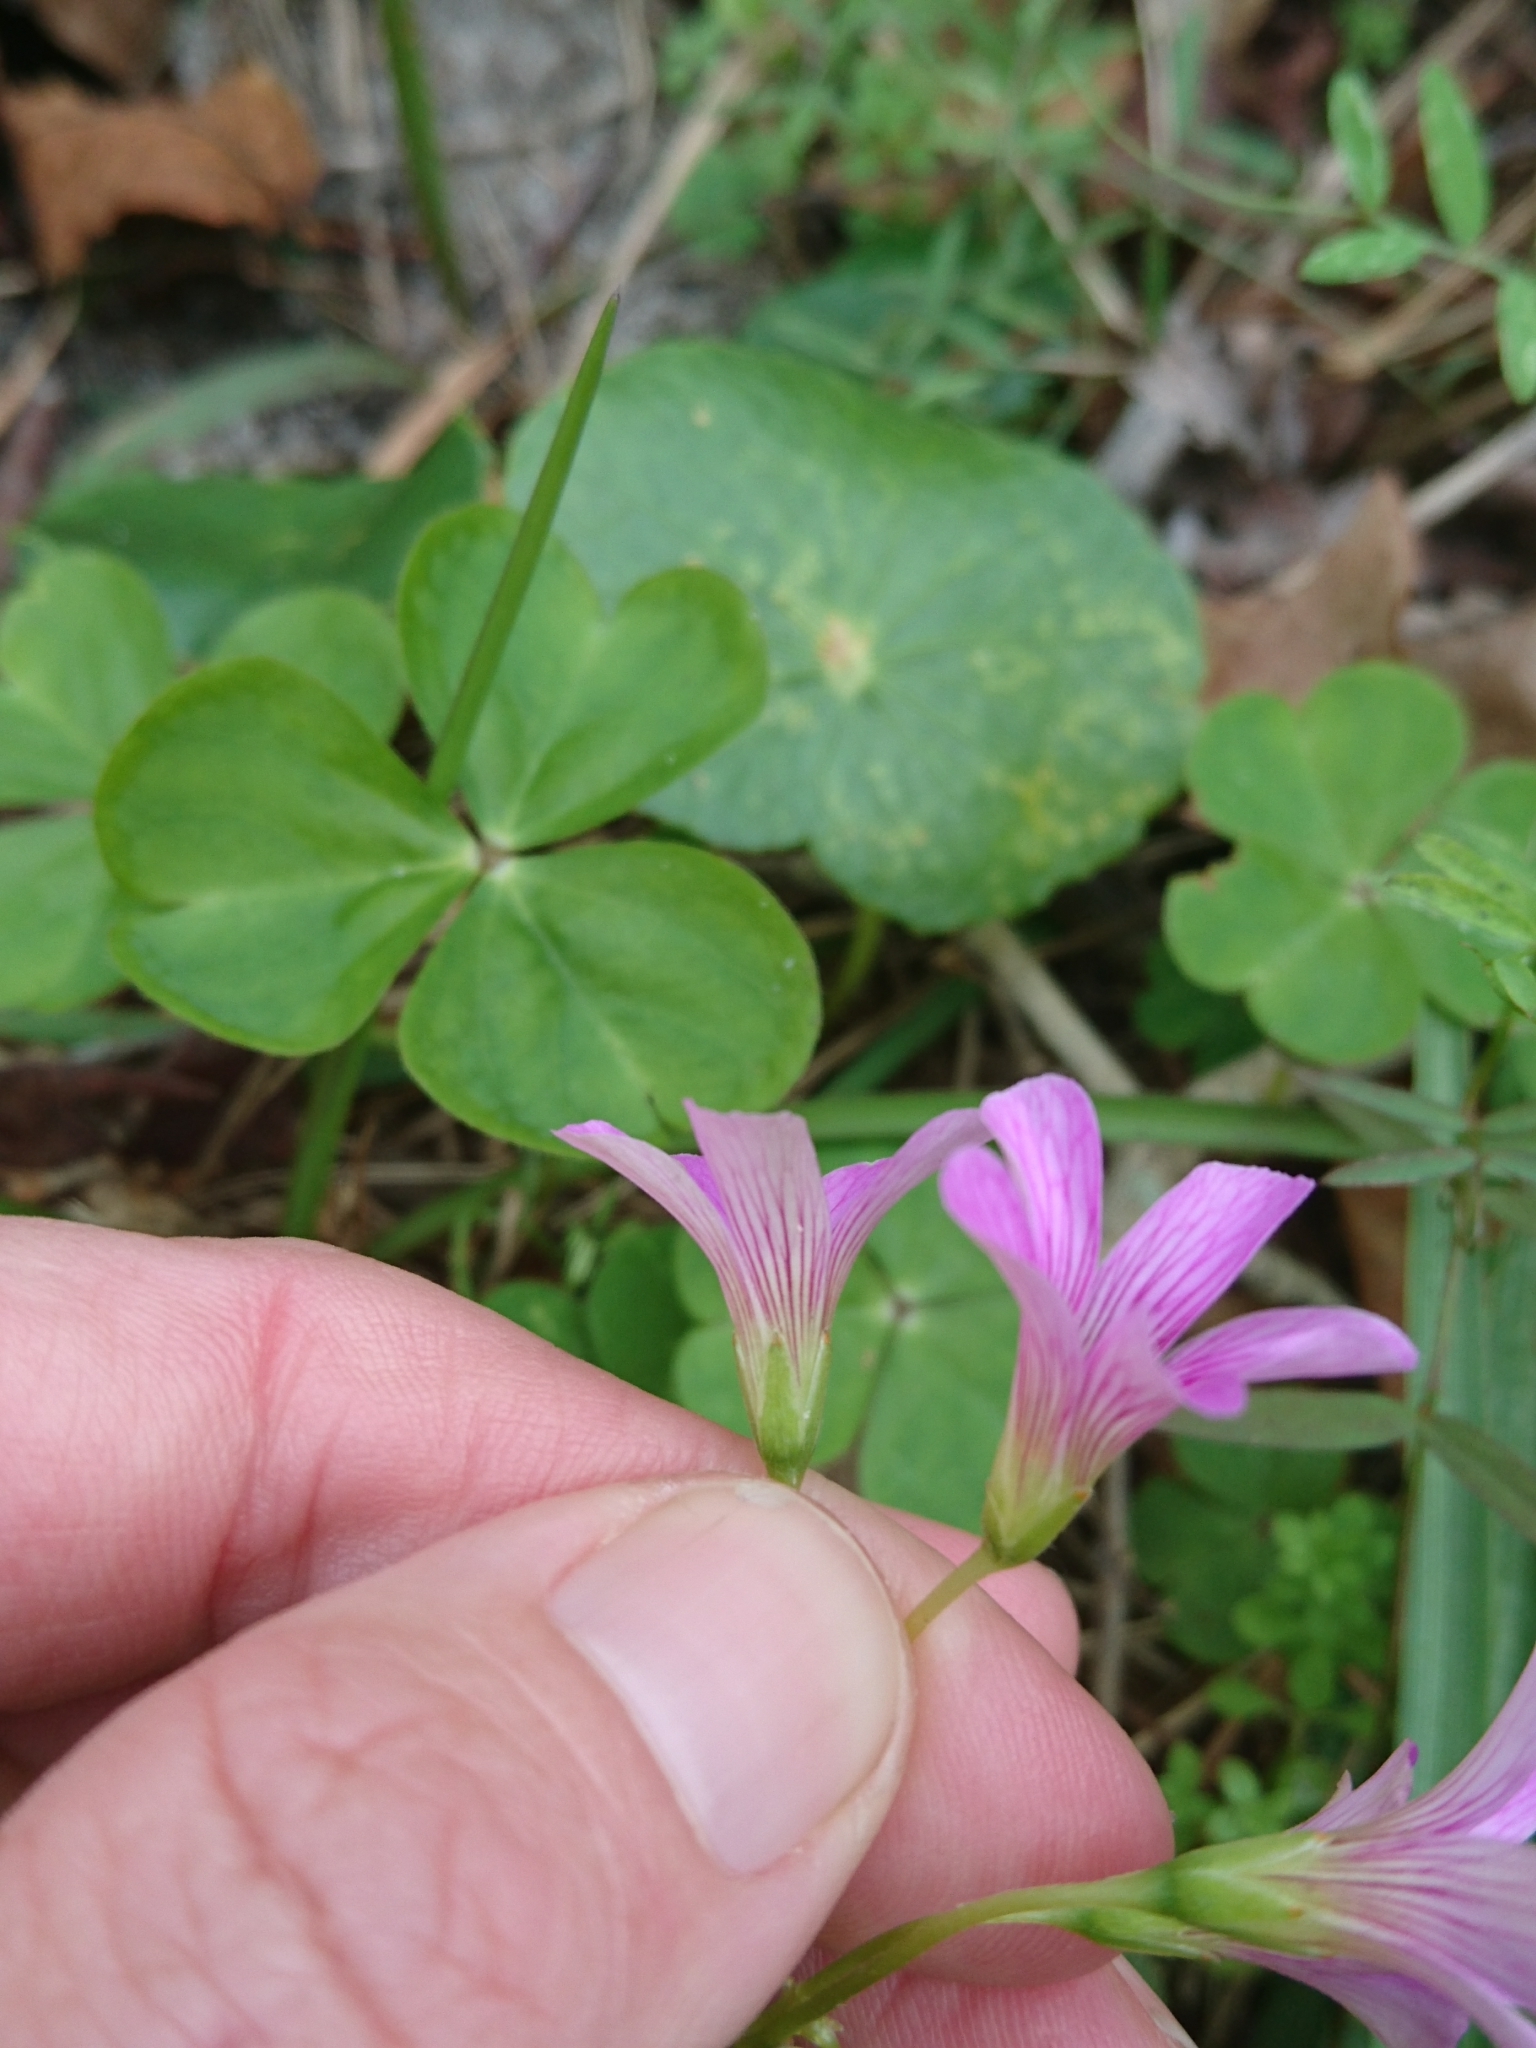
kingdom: Plantae
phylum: Tracheophyta
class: Magnoliopsida
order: Oxalidales
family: Oxalidaceae
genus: Oxalis
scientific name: Oxalis debilis
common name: Large-flowered pink-sorrel
